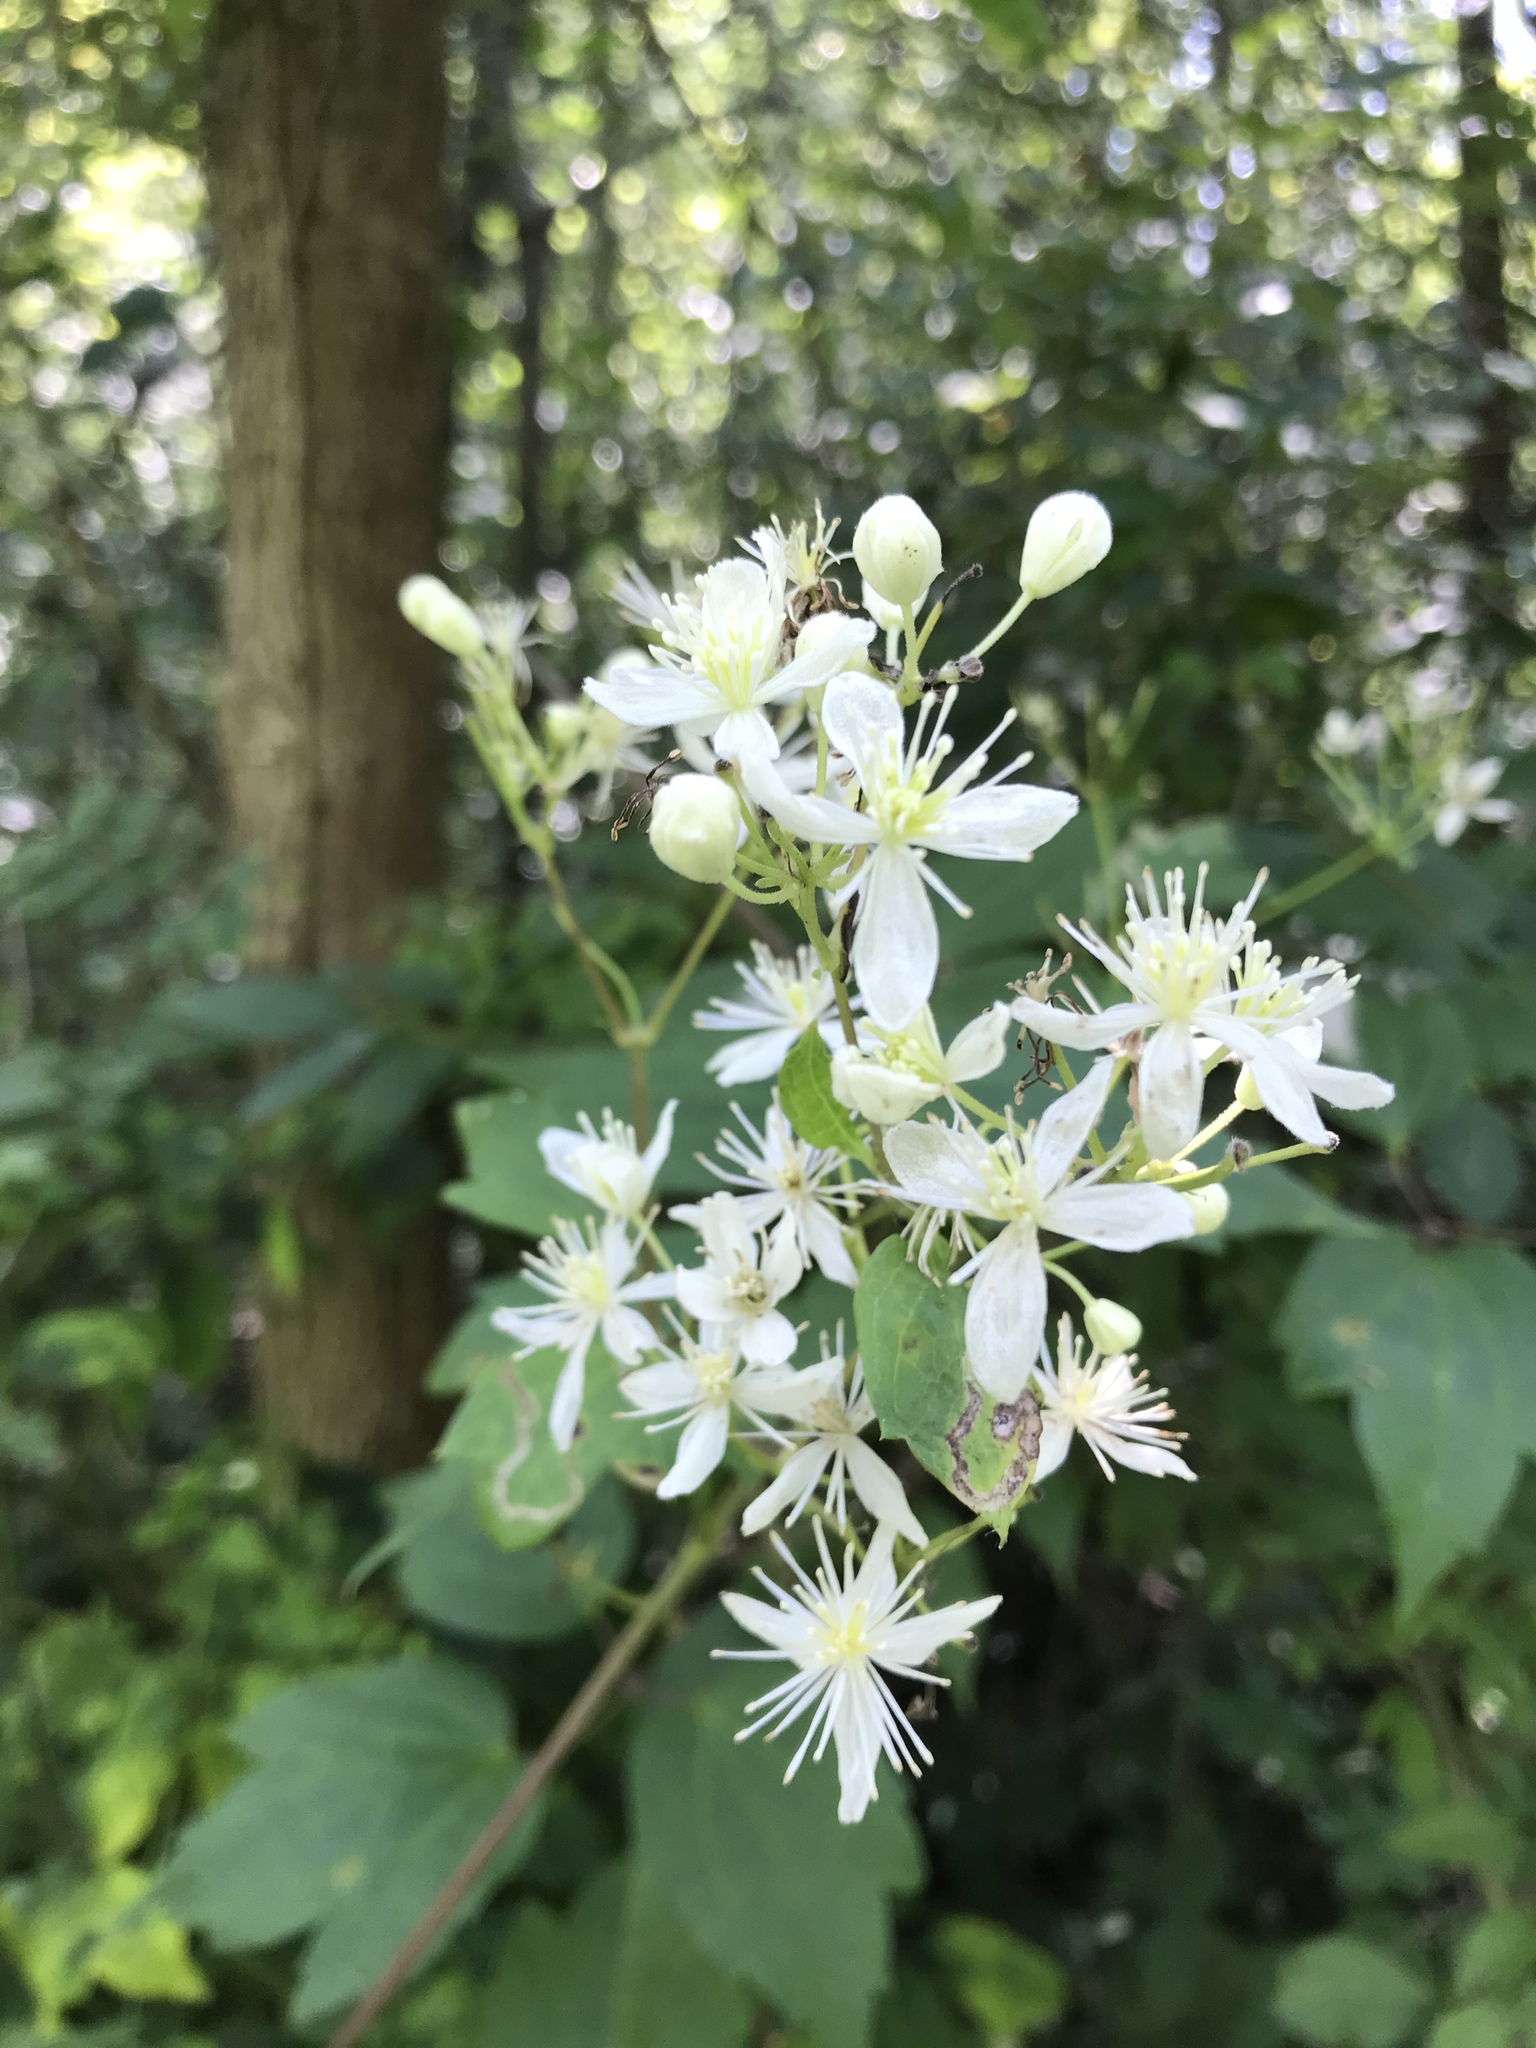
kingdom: Plantae
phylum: Tracheophyta
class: Magnoliopsida
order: Ranunculales
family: Ranunculaceae
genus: Clematis
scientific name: Clematis virginiana
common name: Virgin's-bower
